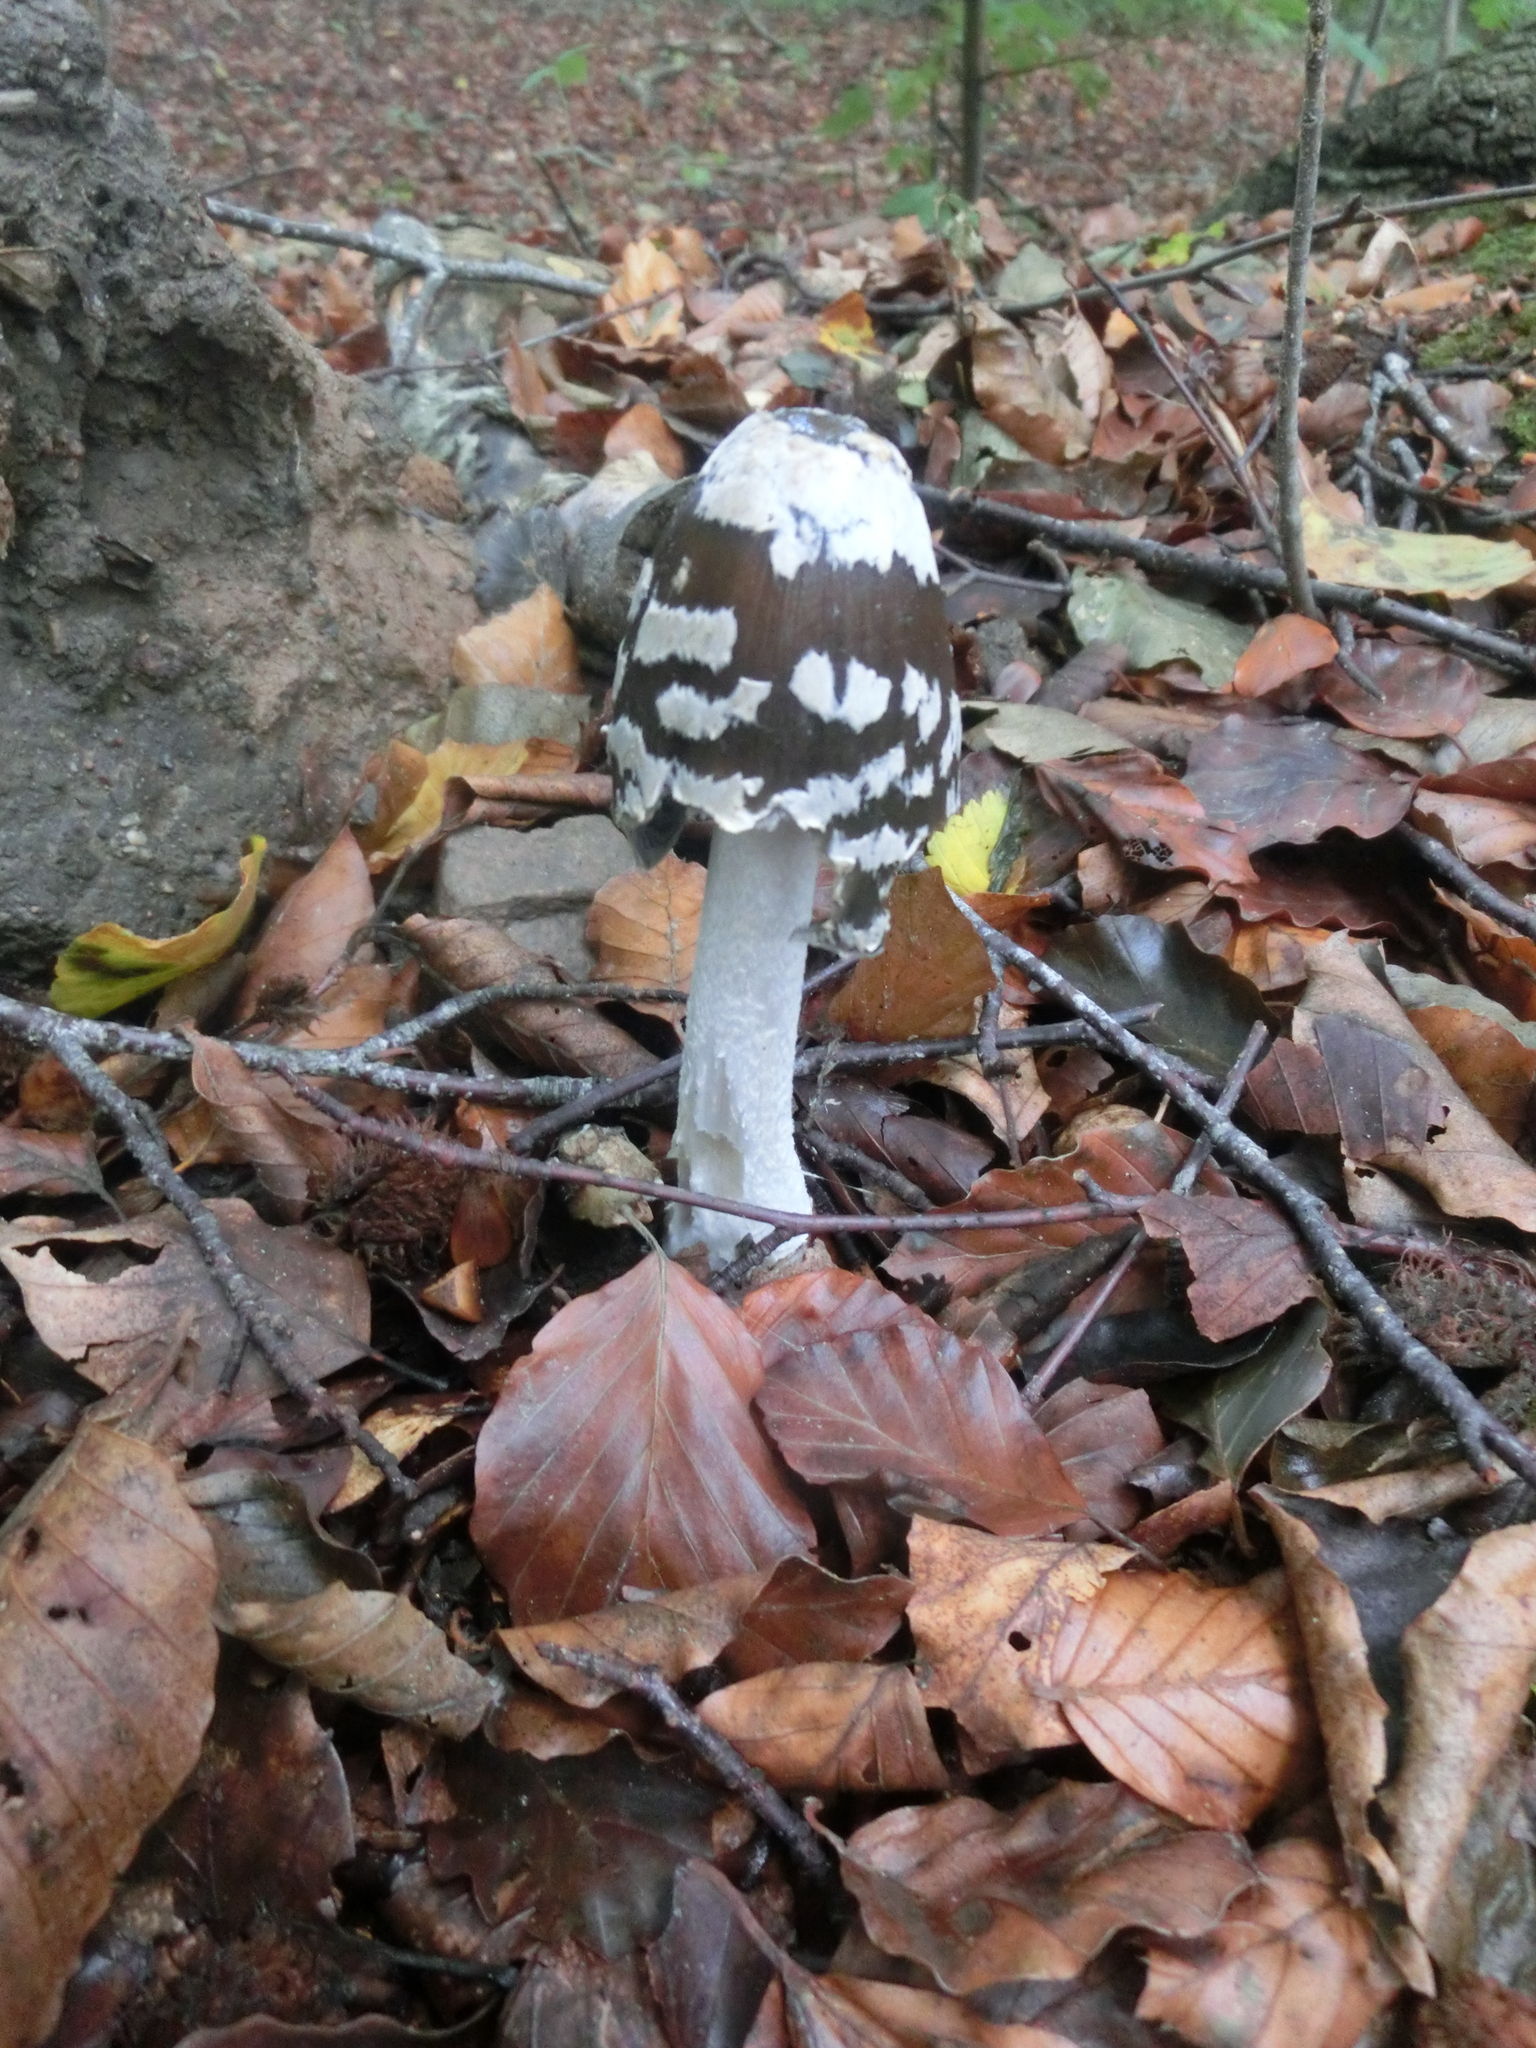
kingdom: Fungi
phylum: Basidiomycota
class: Agaricomycetes
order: Agaricales
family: Psathyrellaceae
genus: Coprinopsis
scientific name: Coprinopsis picacea
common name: Magpie inkcap
